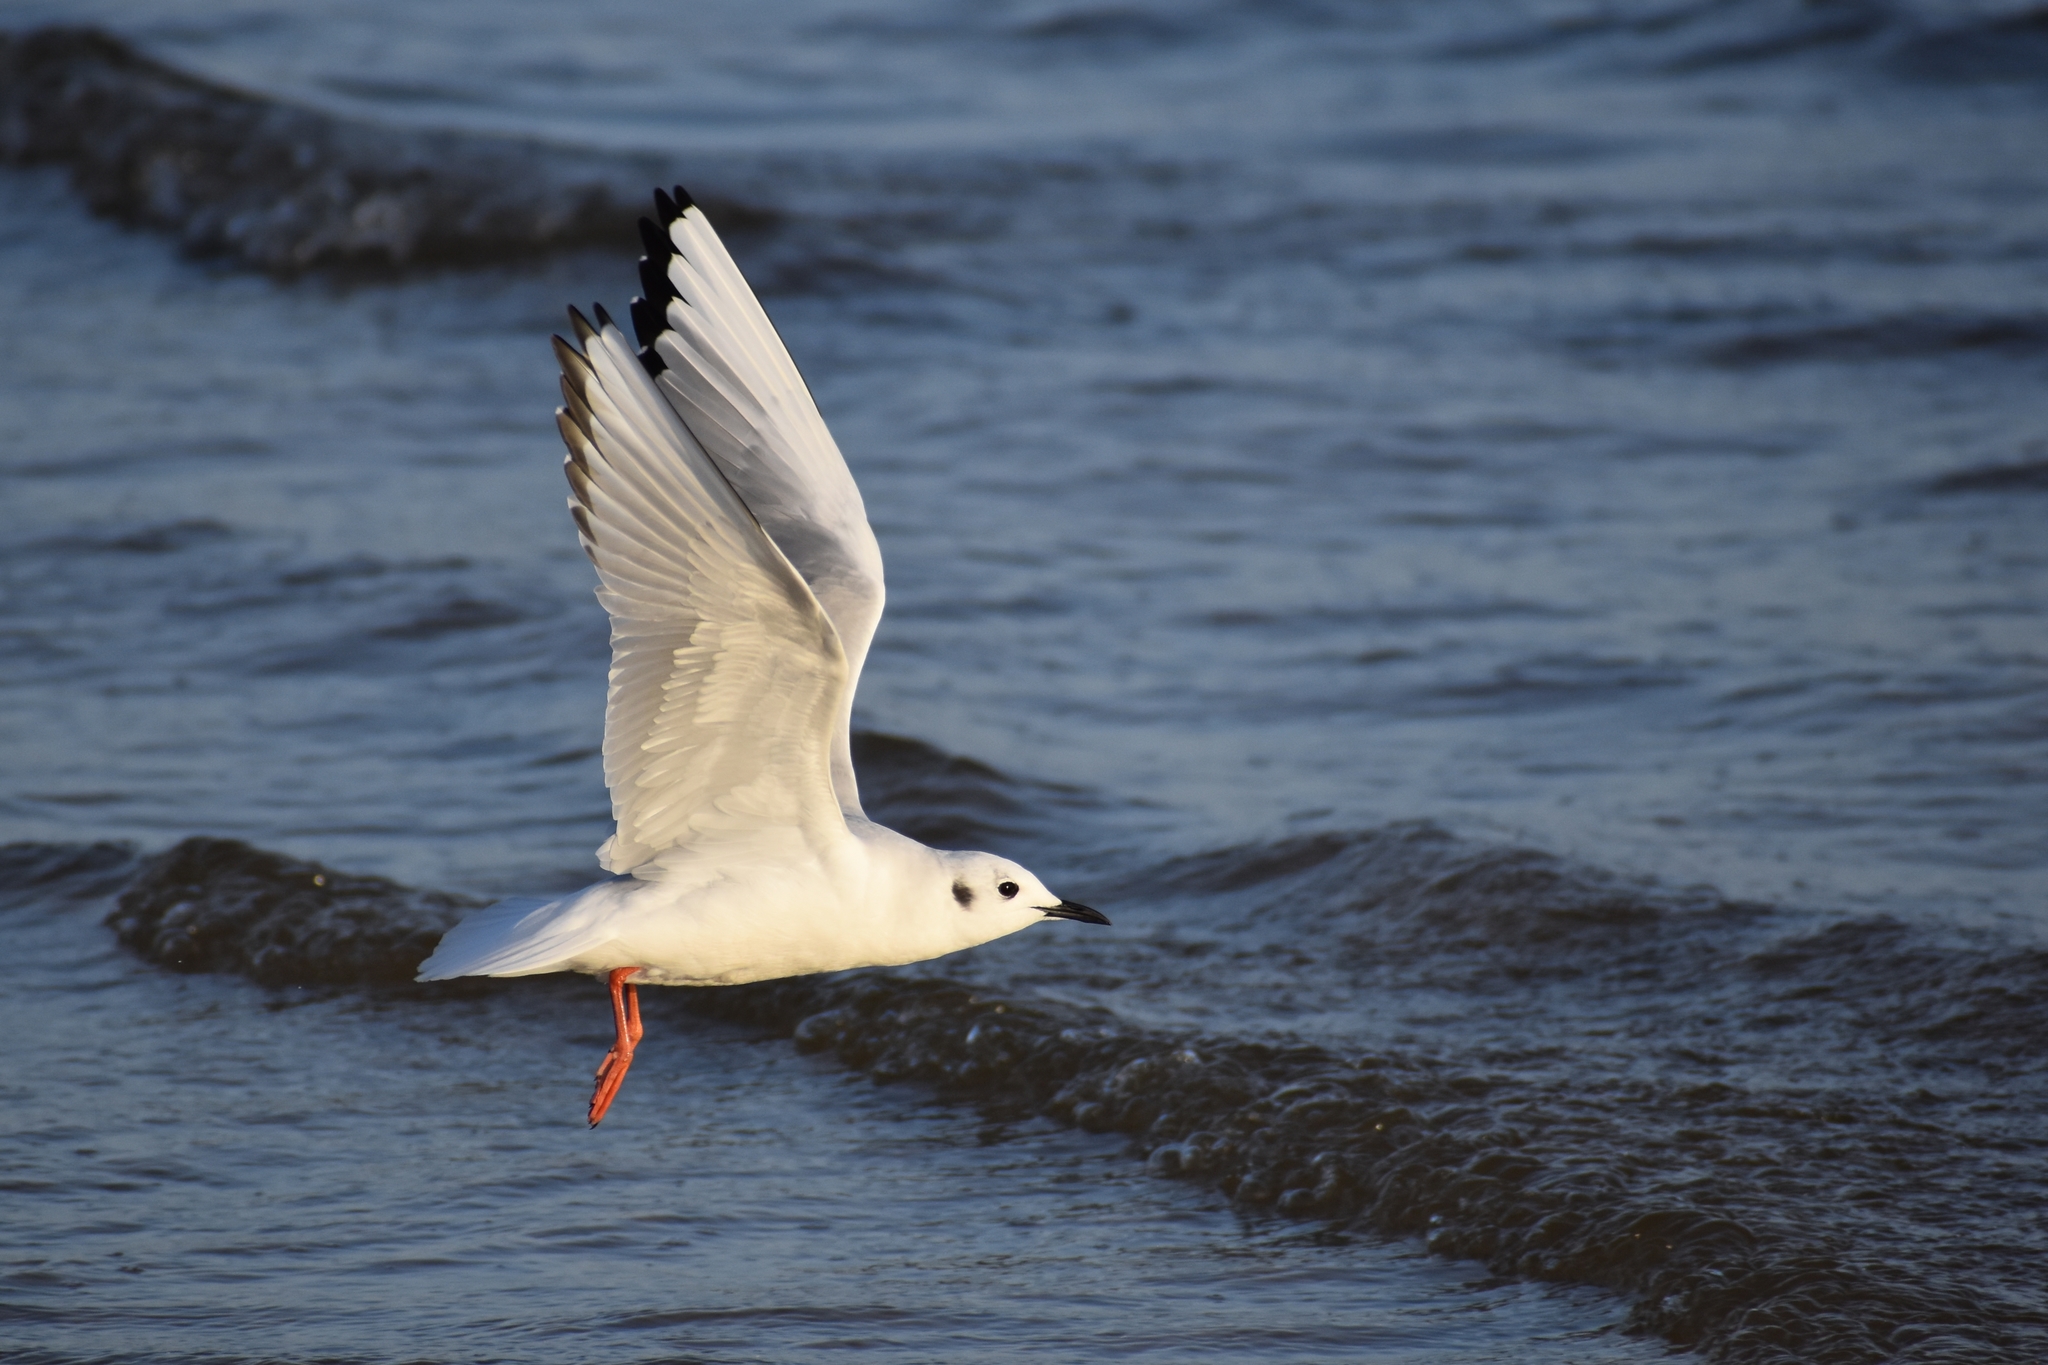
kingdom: Animalia
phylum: Chordata
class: Aves
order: Charadriiformes
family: Laridae
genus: Chroicocephalus
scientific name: Chroicocephalus philadelphia
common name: Bonaparte's gull
